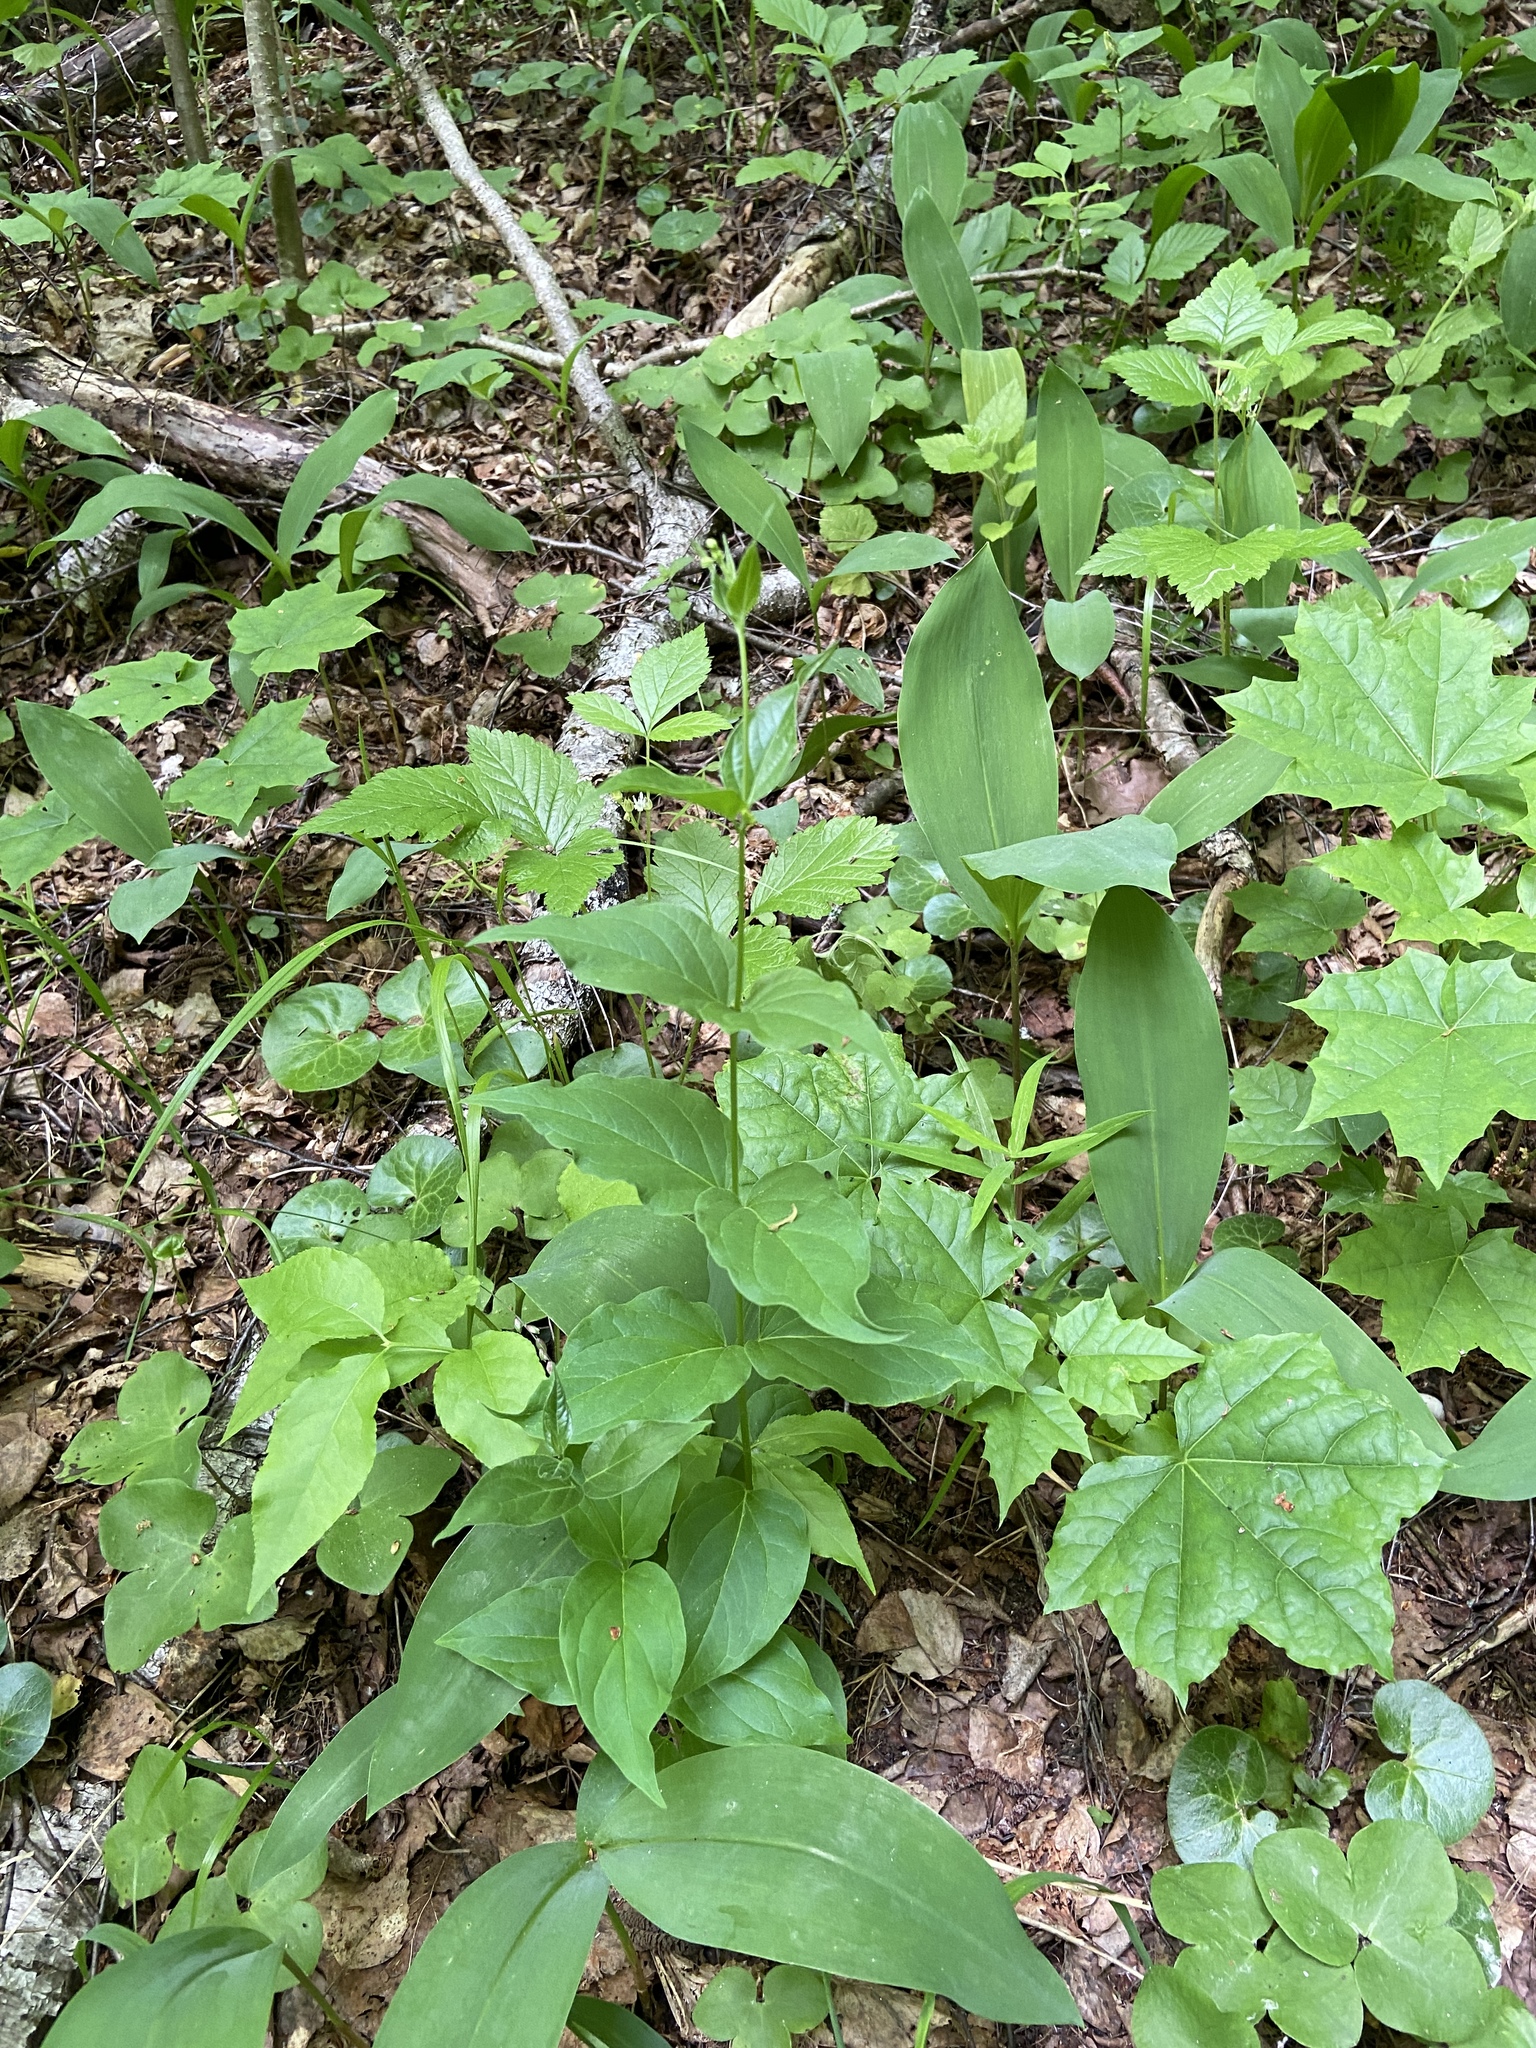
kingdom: Plantae
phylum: Tracheophyta
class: Magnoliopsida
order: Gentianales
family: Apocynaceae
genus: Vincetoxicum
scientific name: Vincetoxicum hirundinaria
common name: White swallowwort
